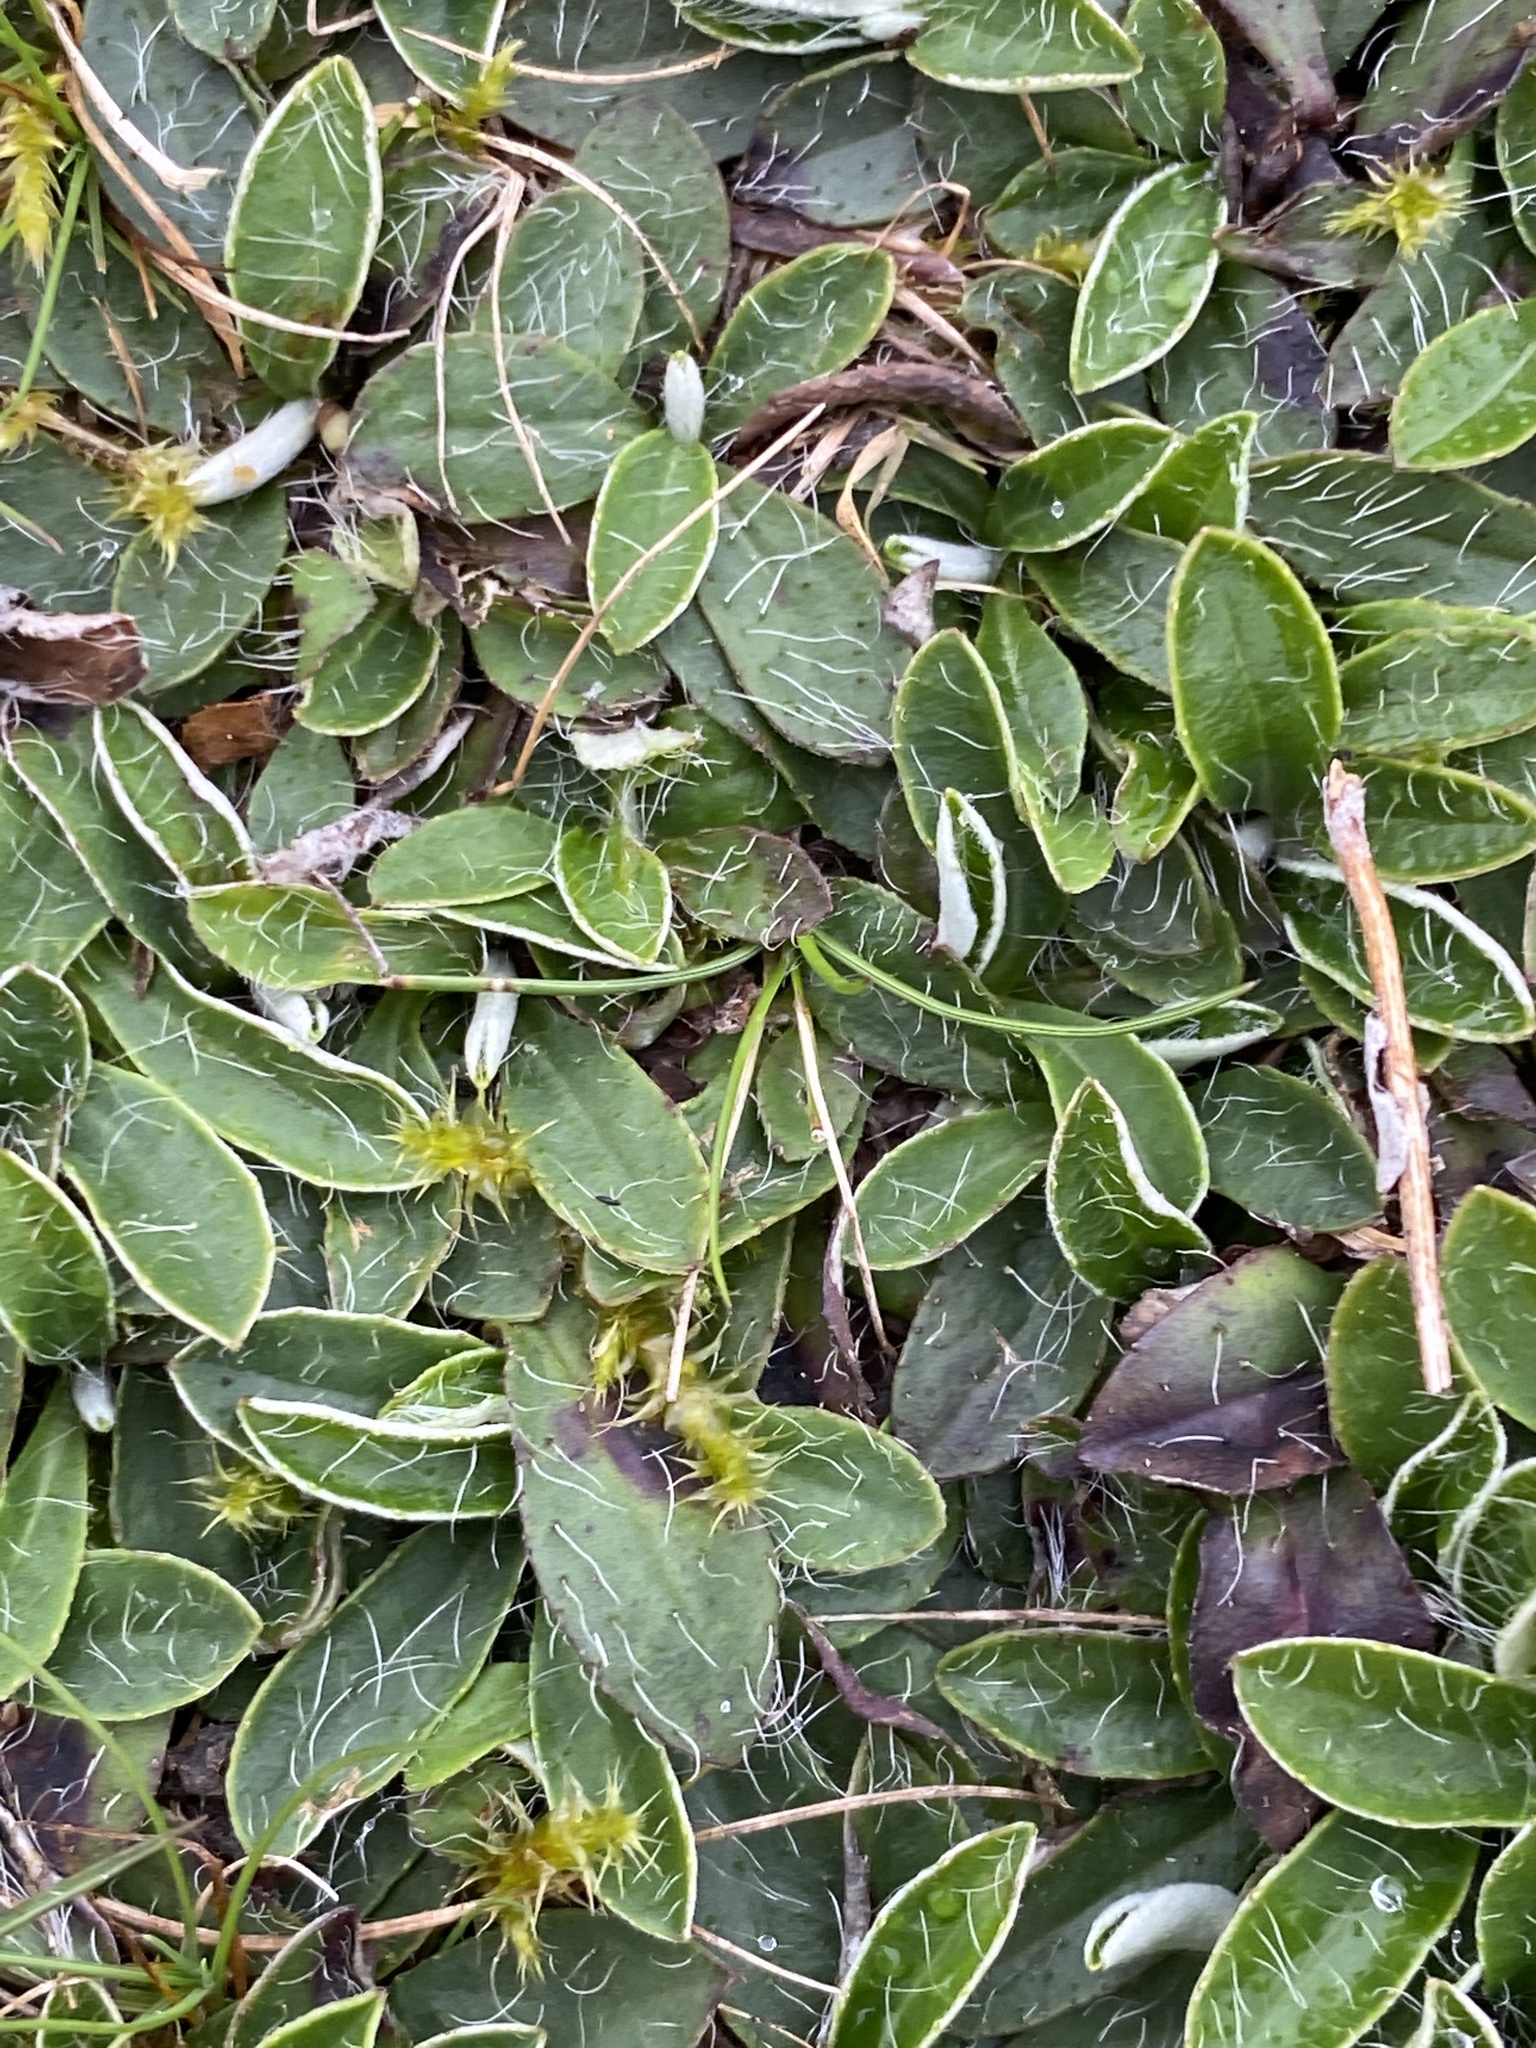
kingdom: Plantae
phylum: Tracheophyta
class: Magnoliopsida
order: Asterales
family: Asteraceae
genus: Pilosella
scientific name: Pilosella officinarum
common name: Mouse-ear hawkweed
